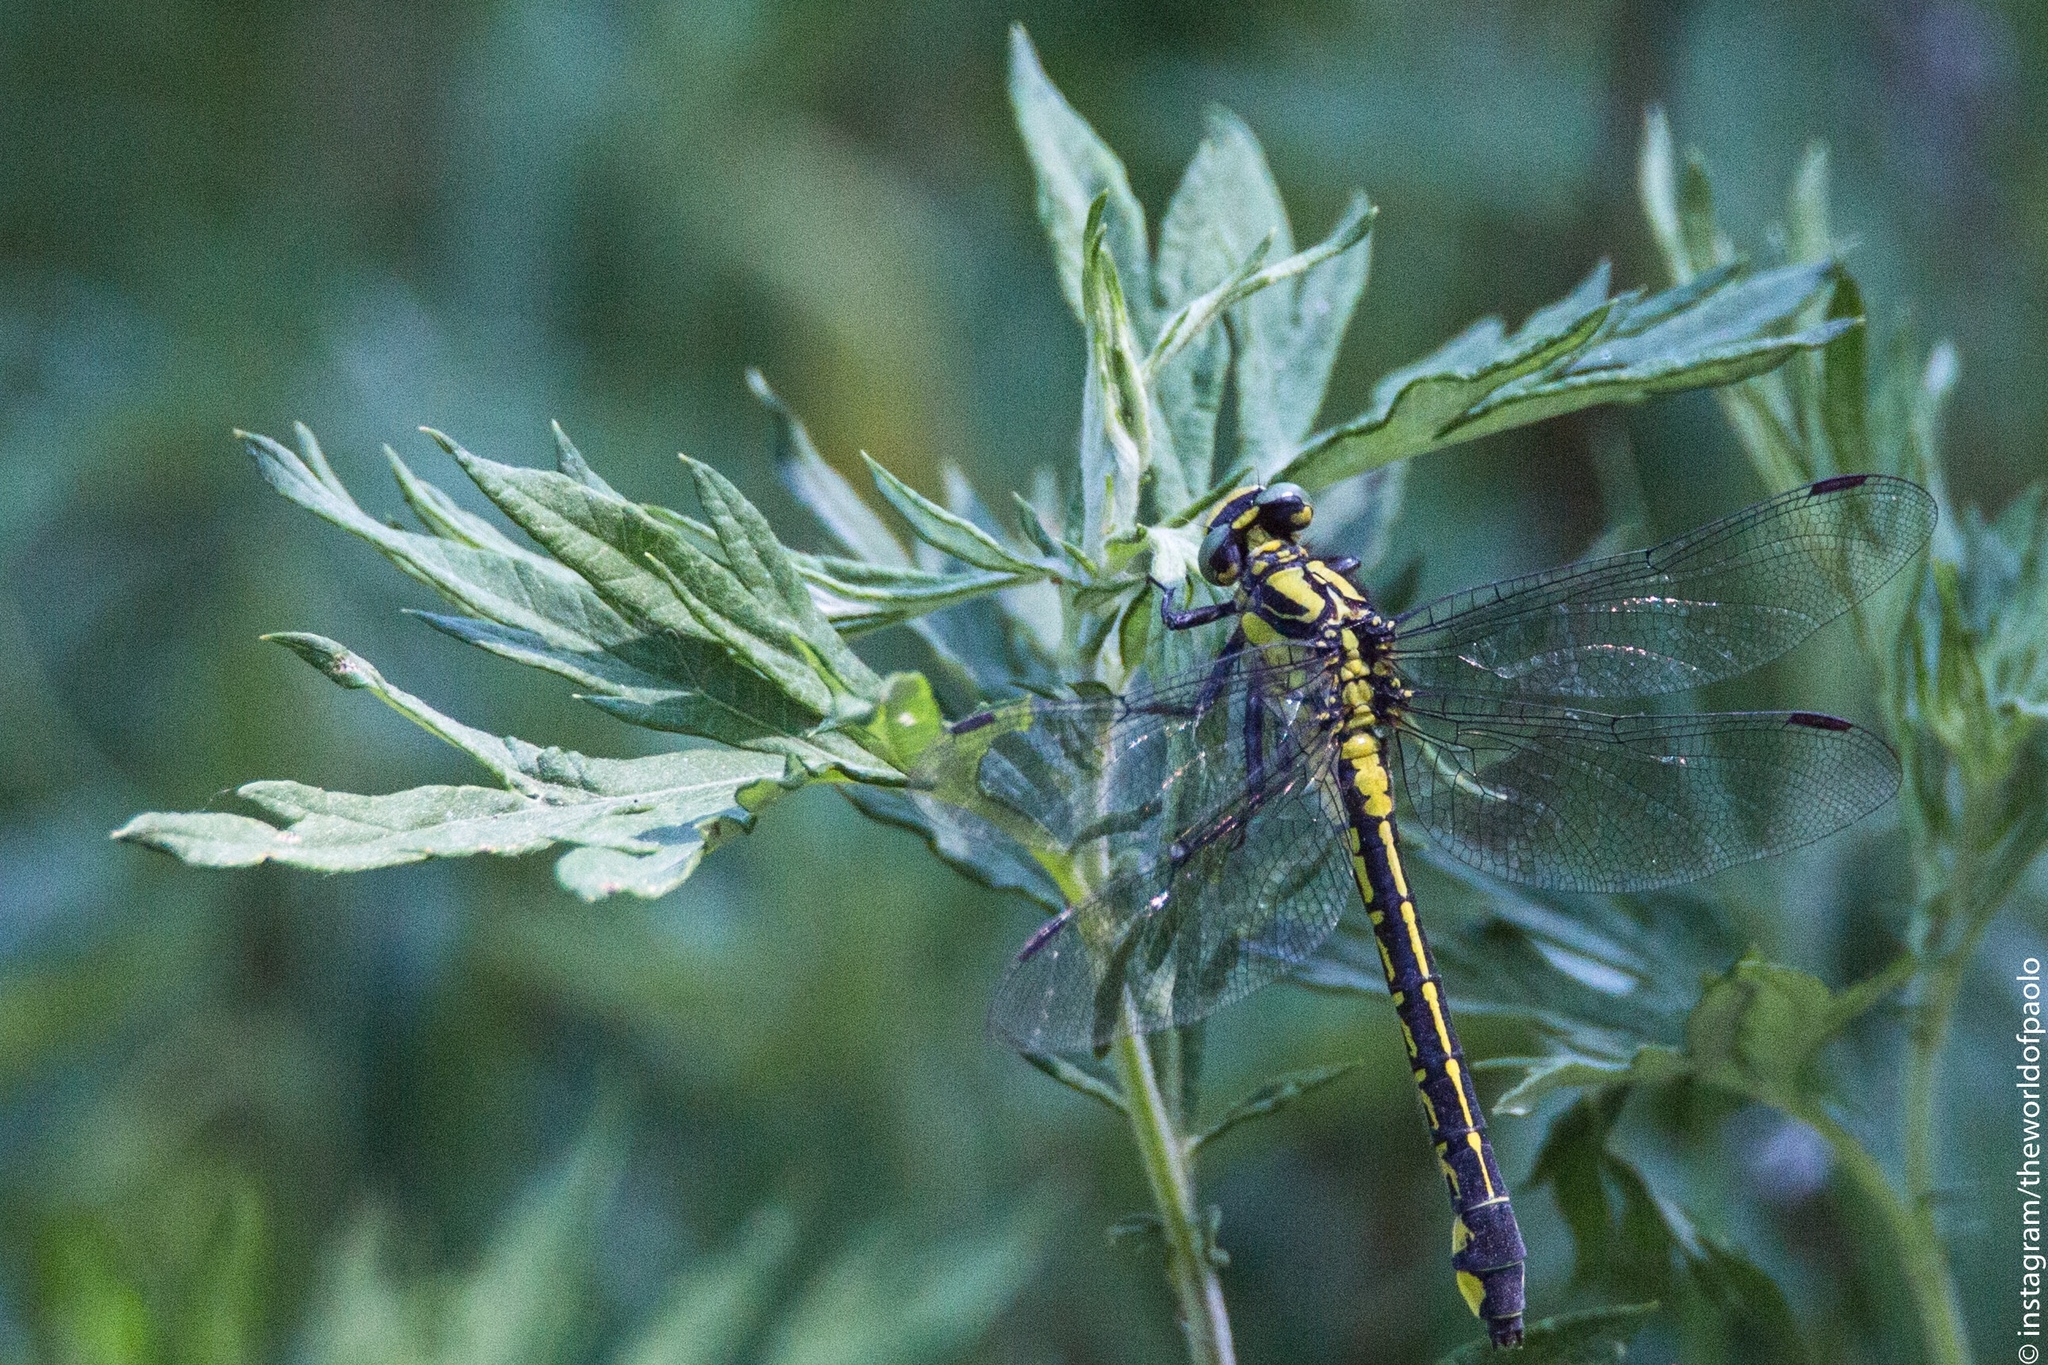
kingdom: Animalia
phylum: Arthropoda
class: Insecta
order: Odonata
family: Gomphidae
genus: Gomphus
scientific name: Gomphus vulgatissimus
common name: Club-tailed dragonfly
